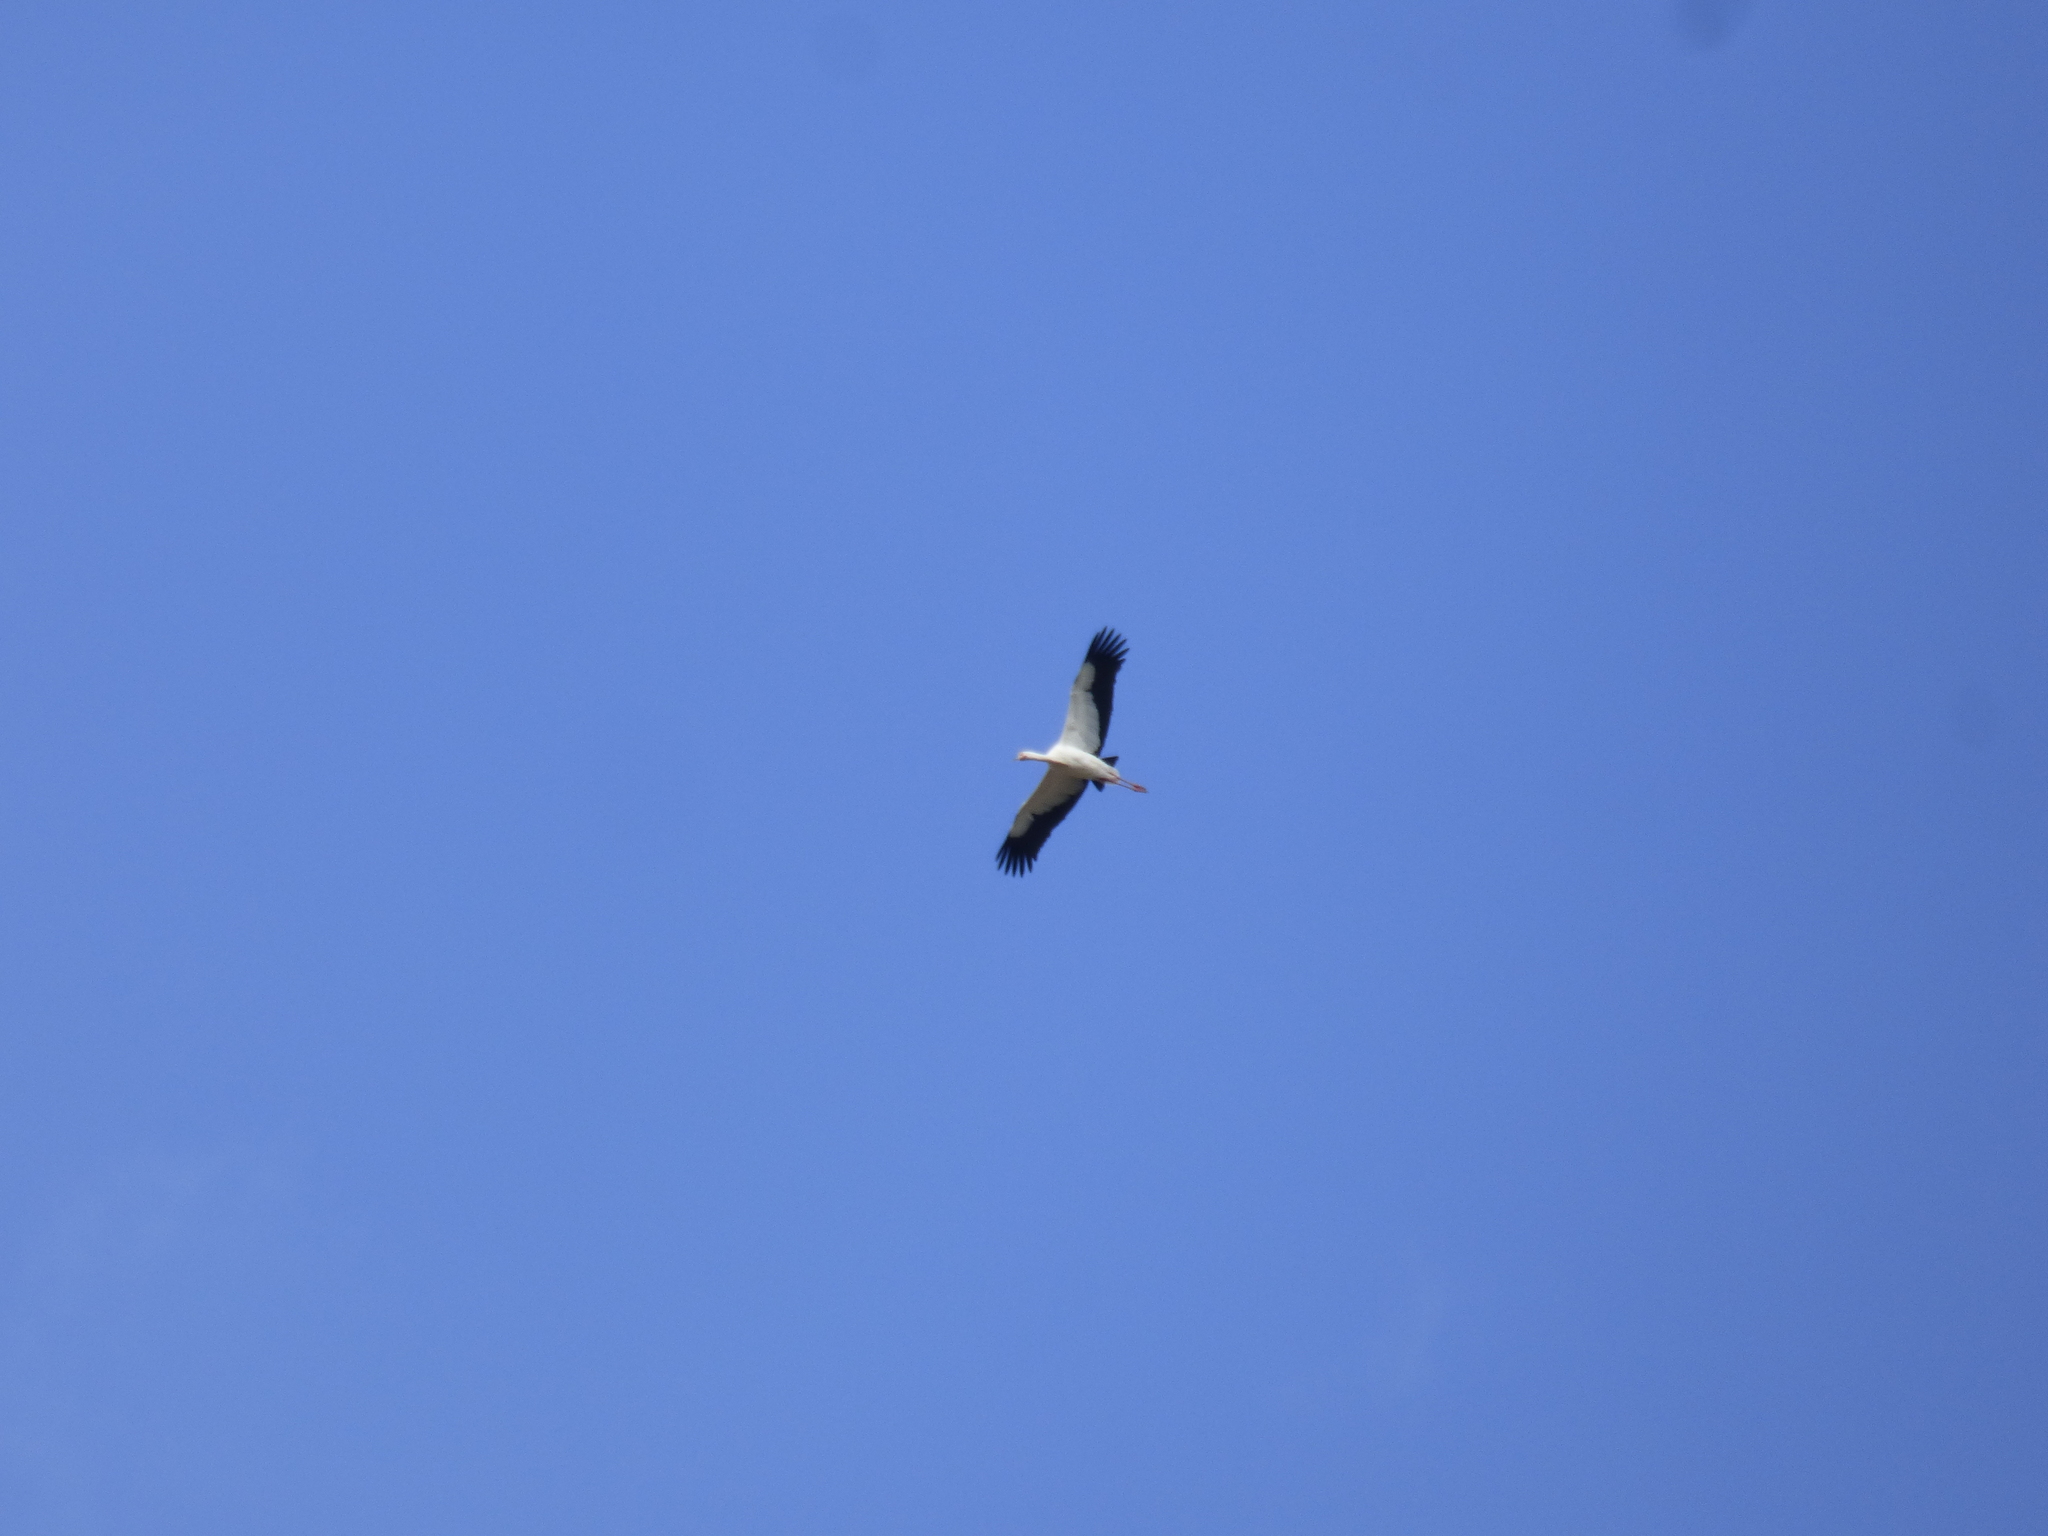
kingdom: Animalia
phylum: Chordata
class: Aves
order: Ciconiiformes
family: Ciconiidae
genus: Ciconia
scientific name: Ciconia maguari
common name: Maguari stork
